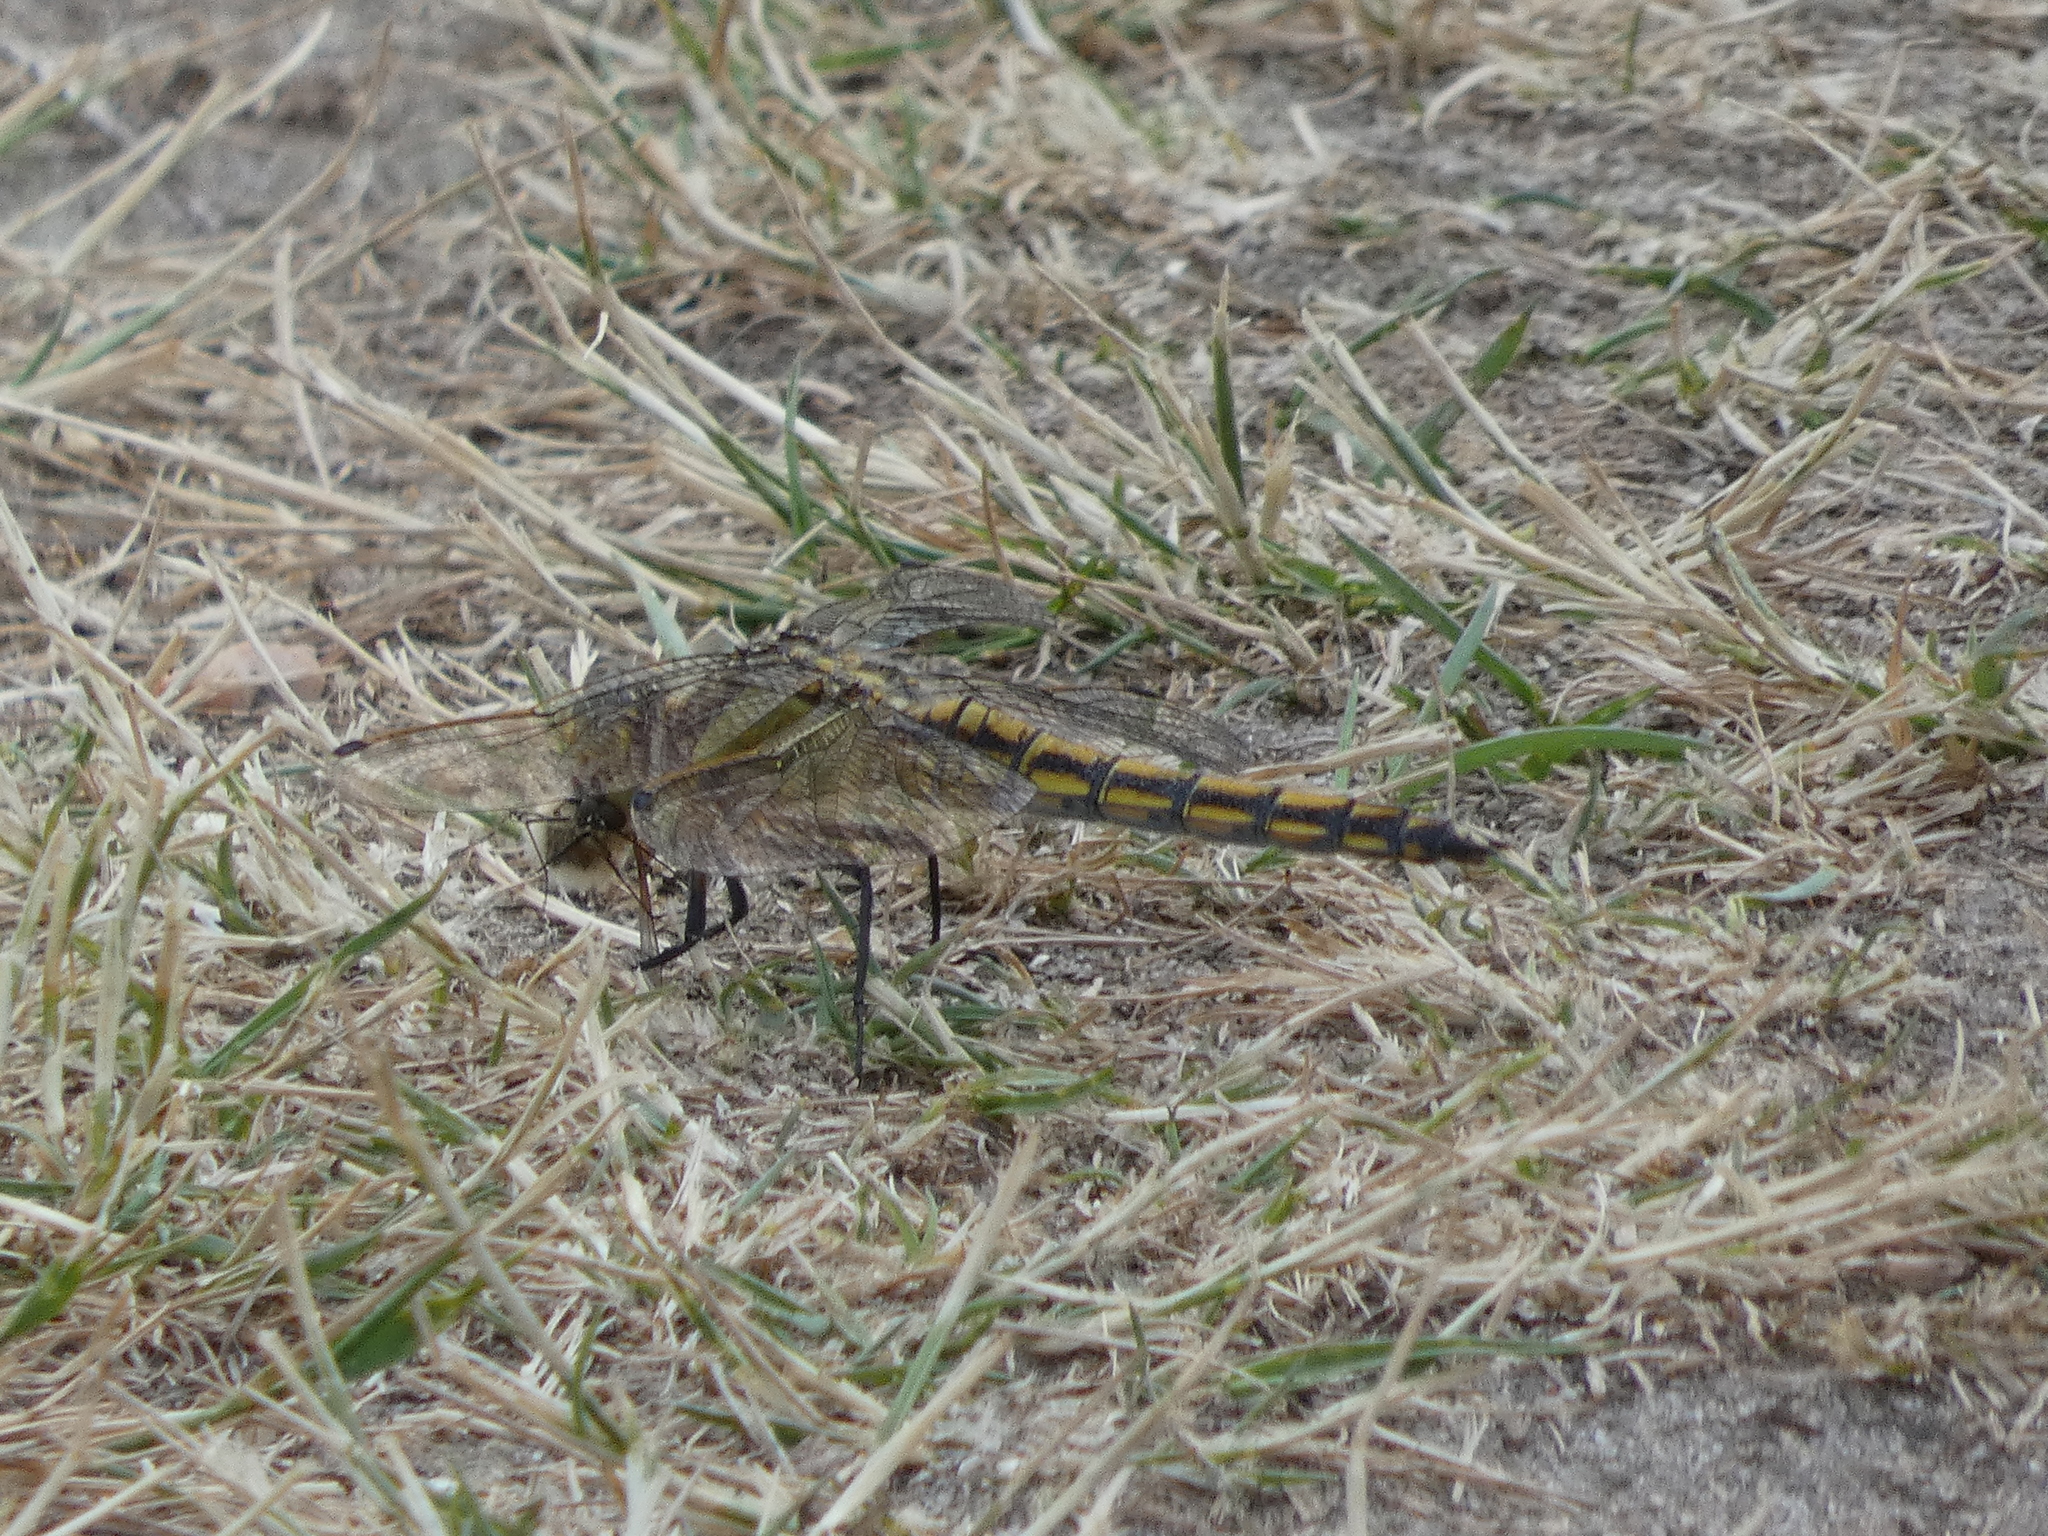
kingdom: Animalia
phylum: Arthropoda
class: Insecta
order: Odonata
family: Libellulidae
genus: Orthetrum
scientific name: Orthetrum cancellatum
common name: Black-tailed skimmer
